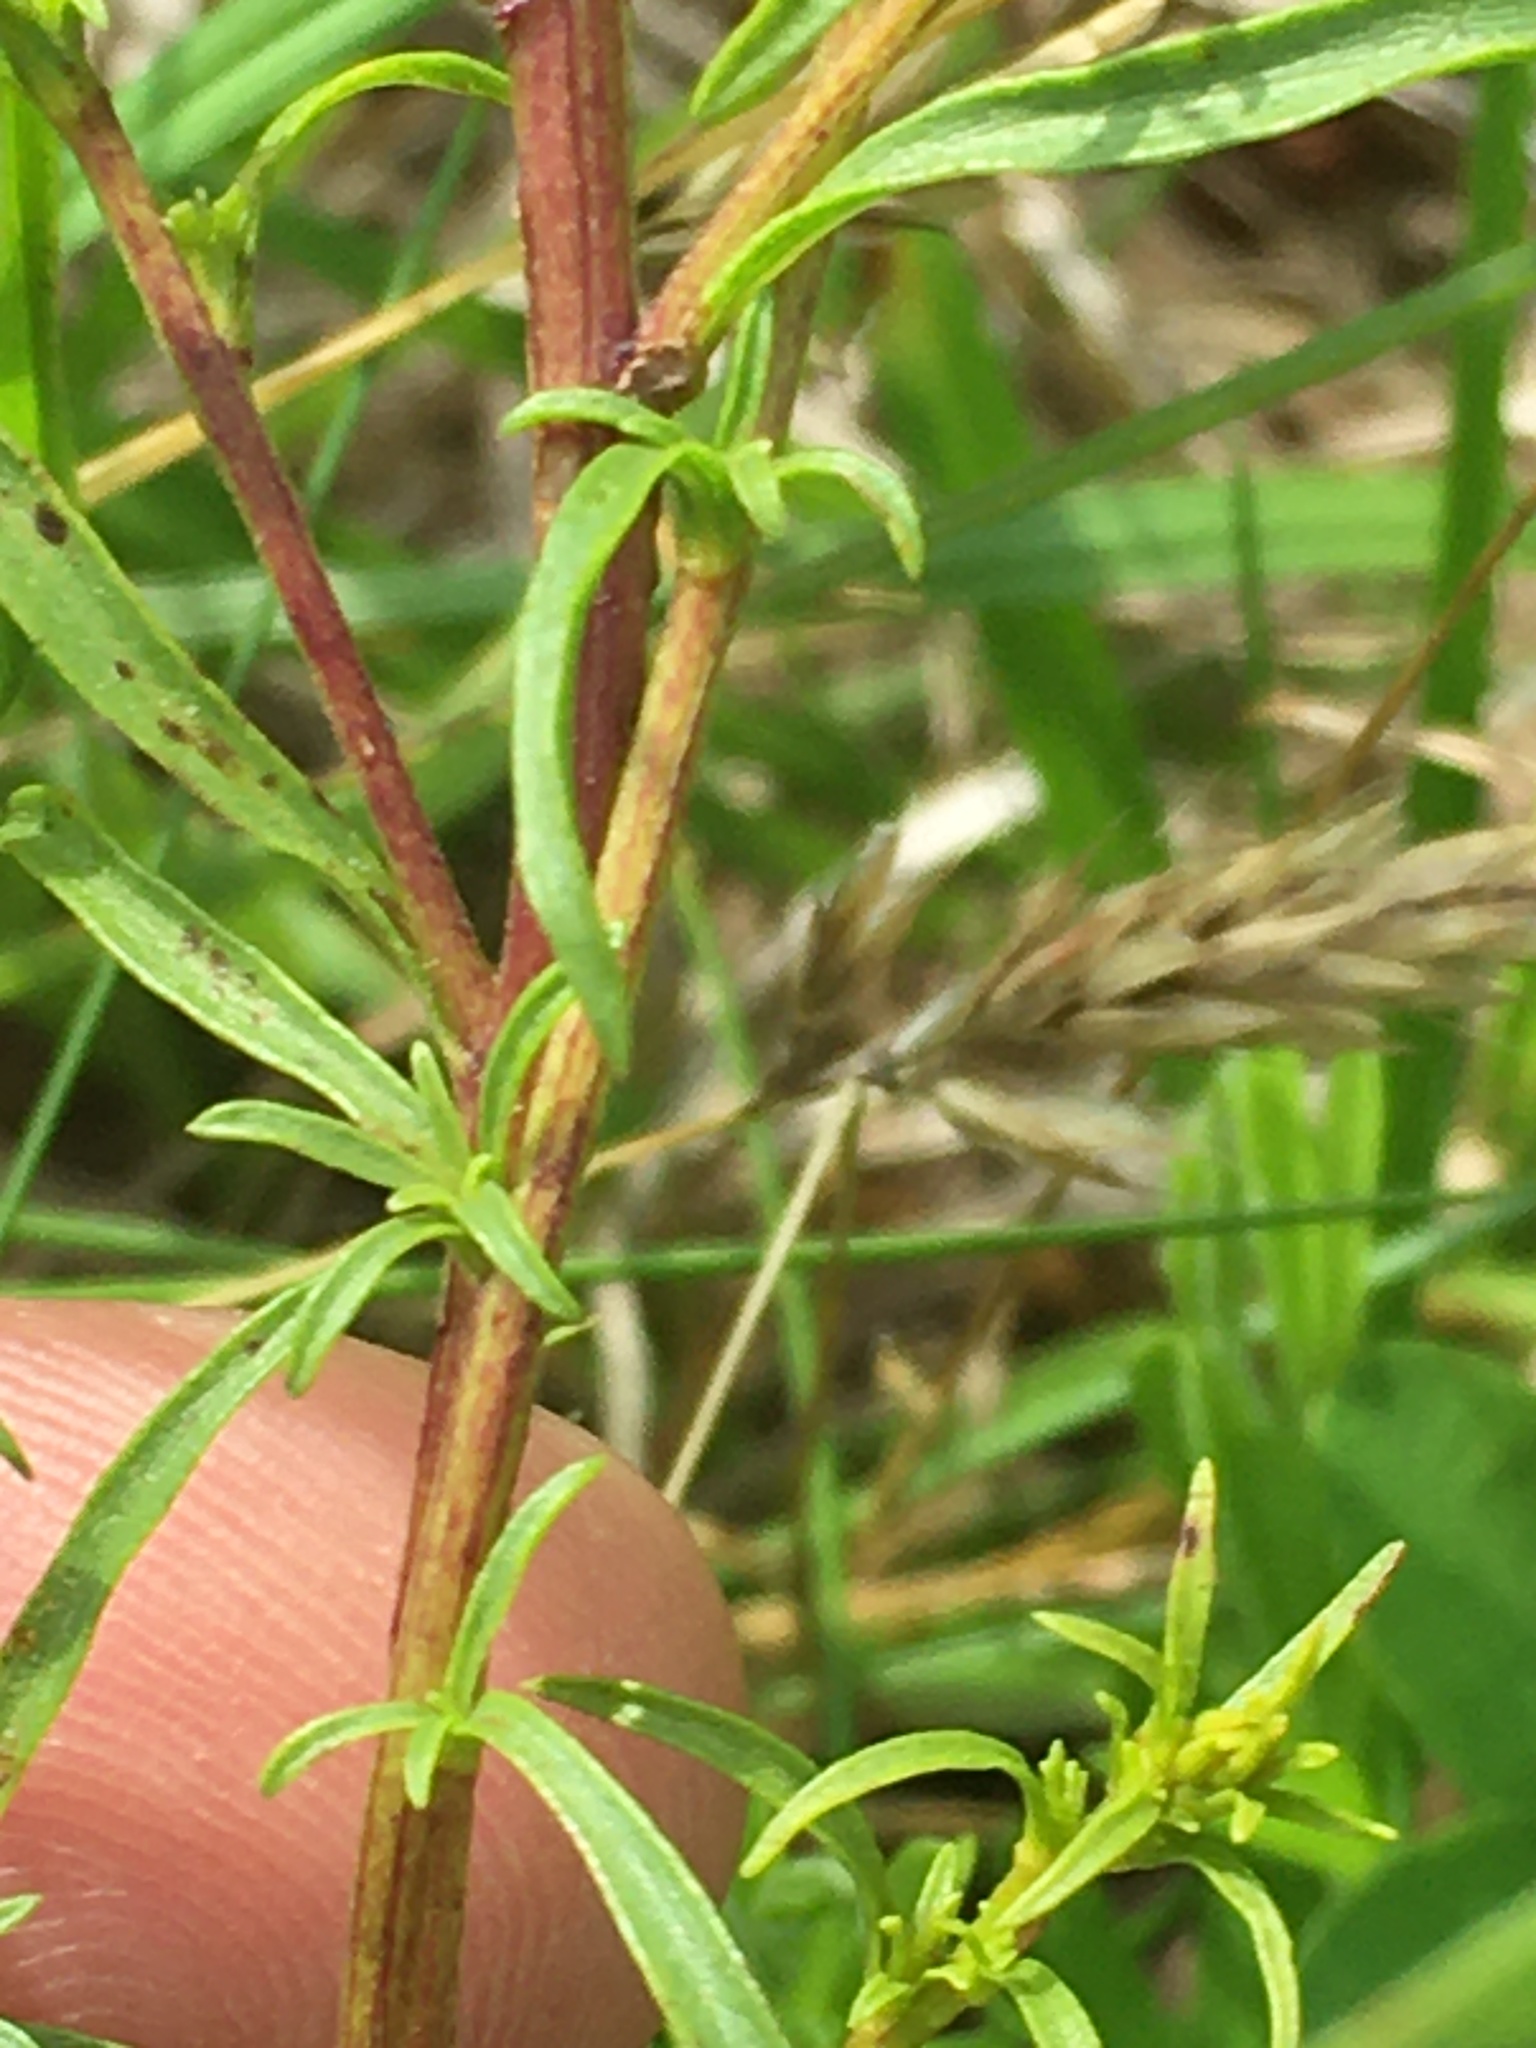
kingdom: Plantae
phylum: Tracheophyta
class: Magnoliopsida
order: Asterales
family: Asteraceae
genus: Solidago
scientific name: Solidago pinetorum
